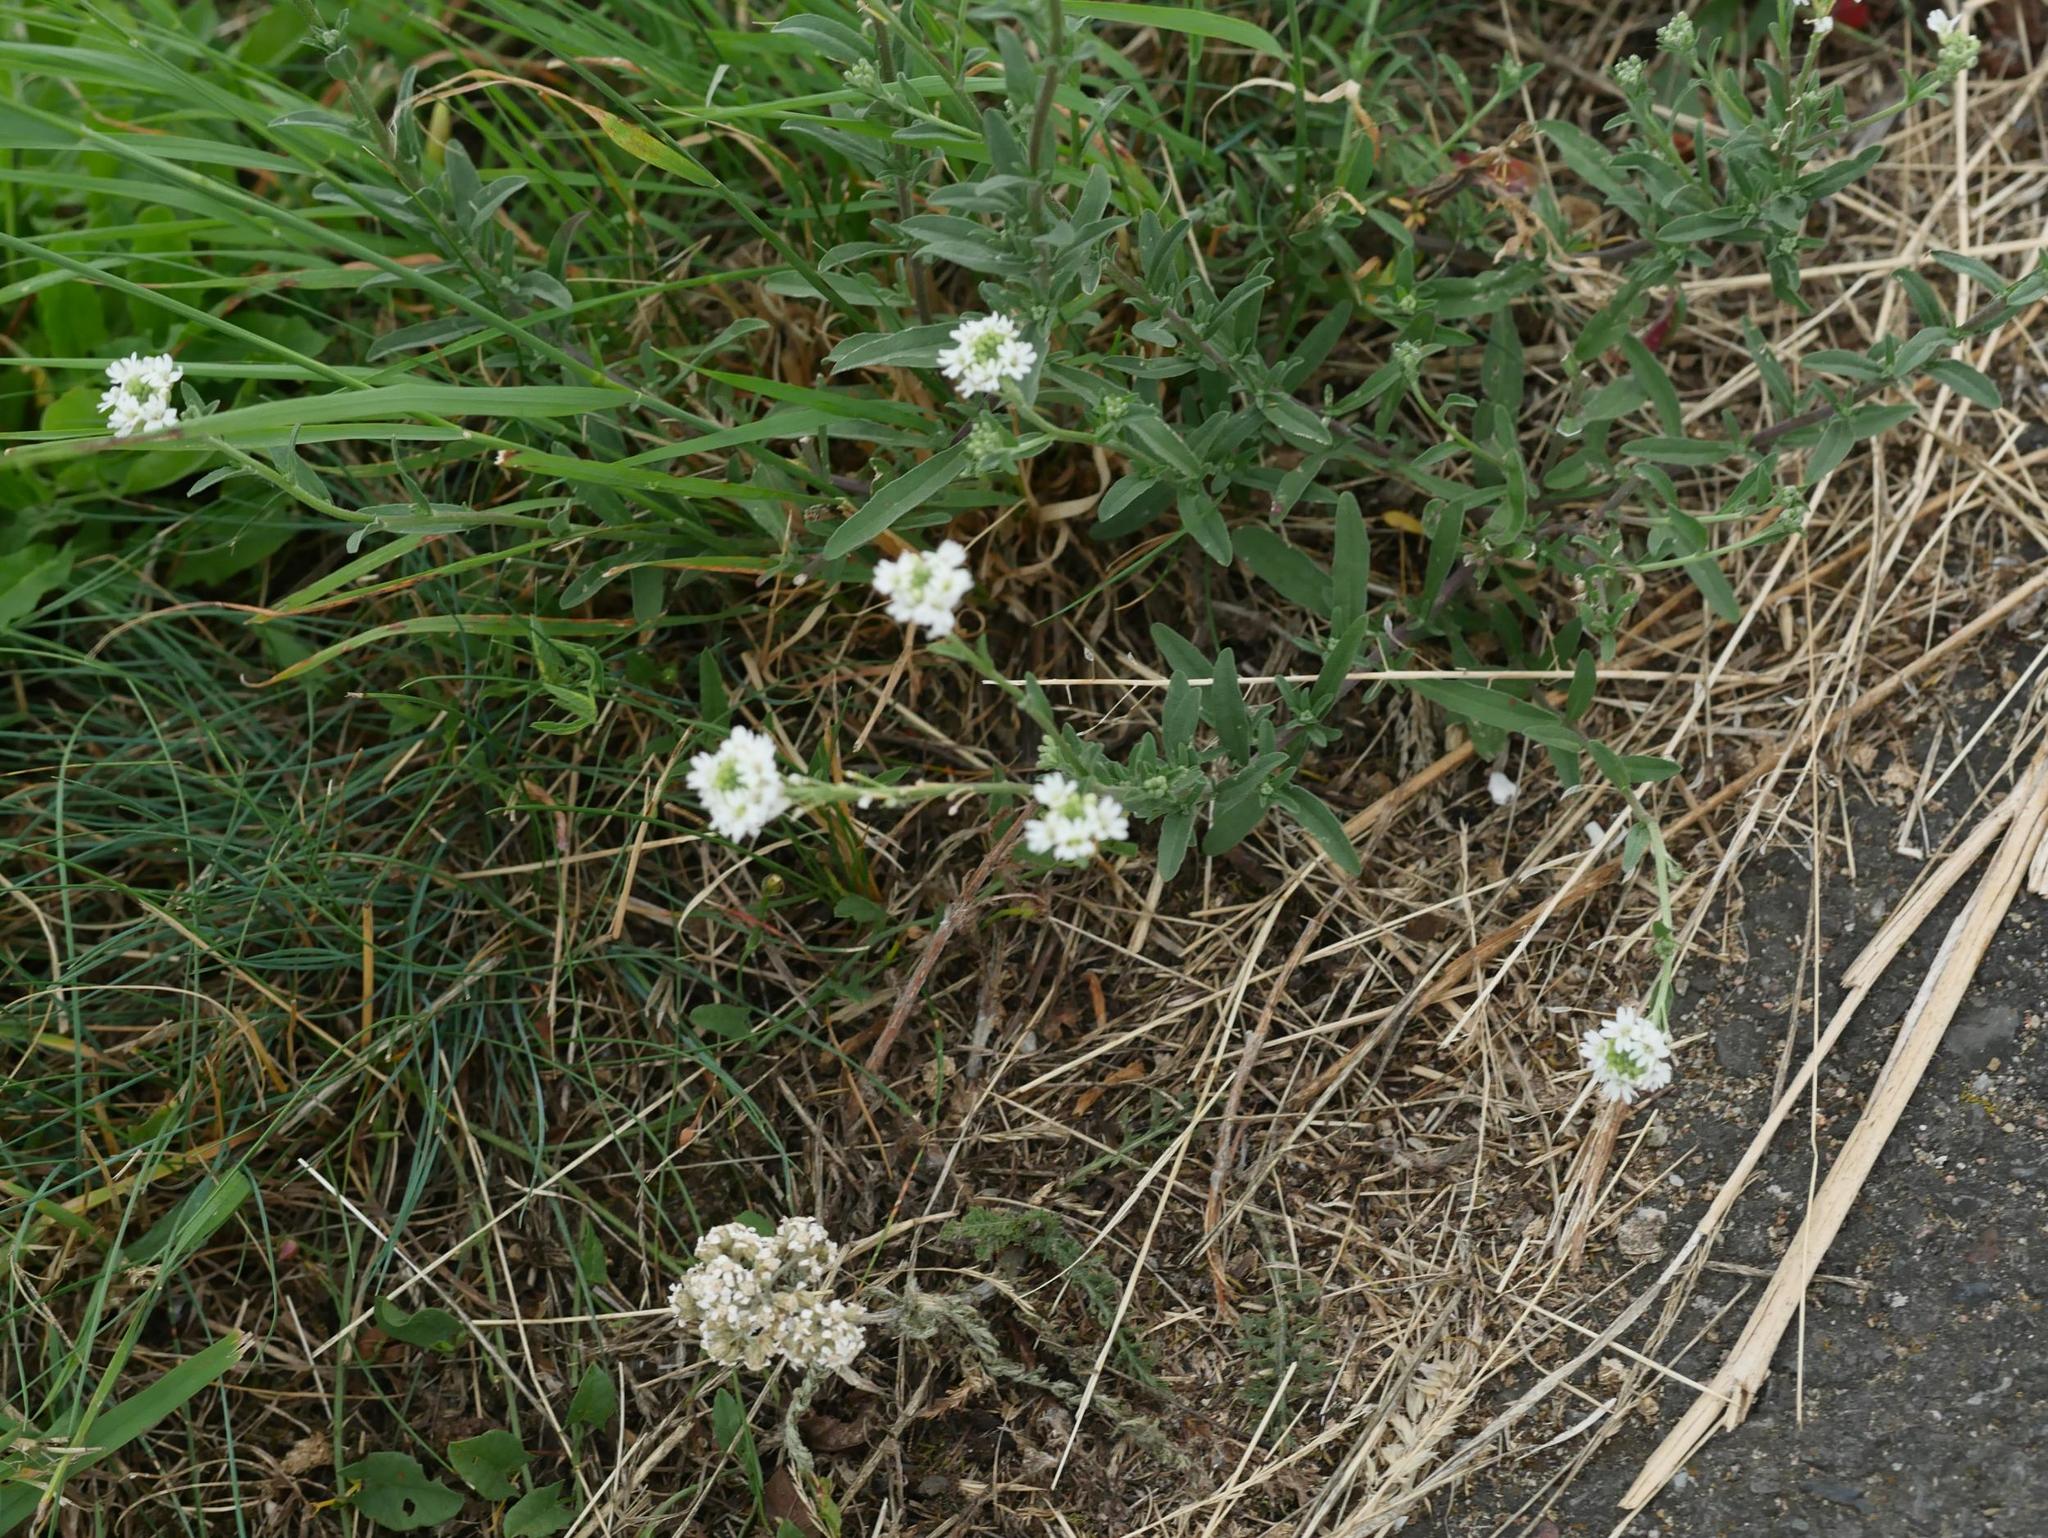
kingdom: Plantae
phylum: Tracheophyta
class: Magnoliopsida
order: Brassicales
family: Brassicaceae
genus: Berteroa
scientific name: Berteroa incana
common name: Hoary alison
